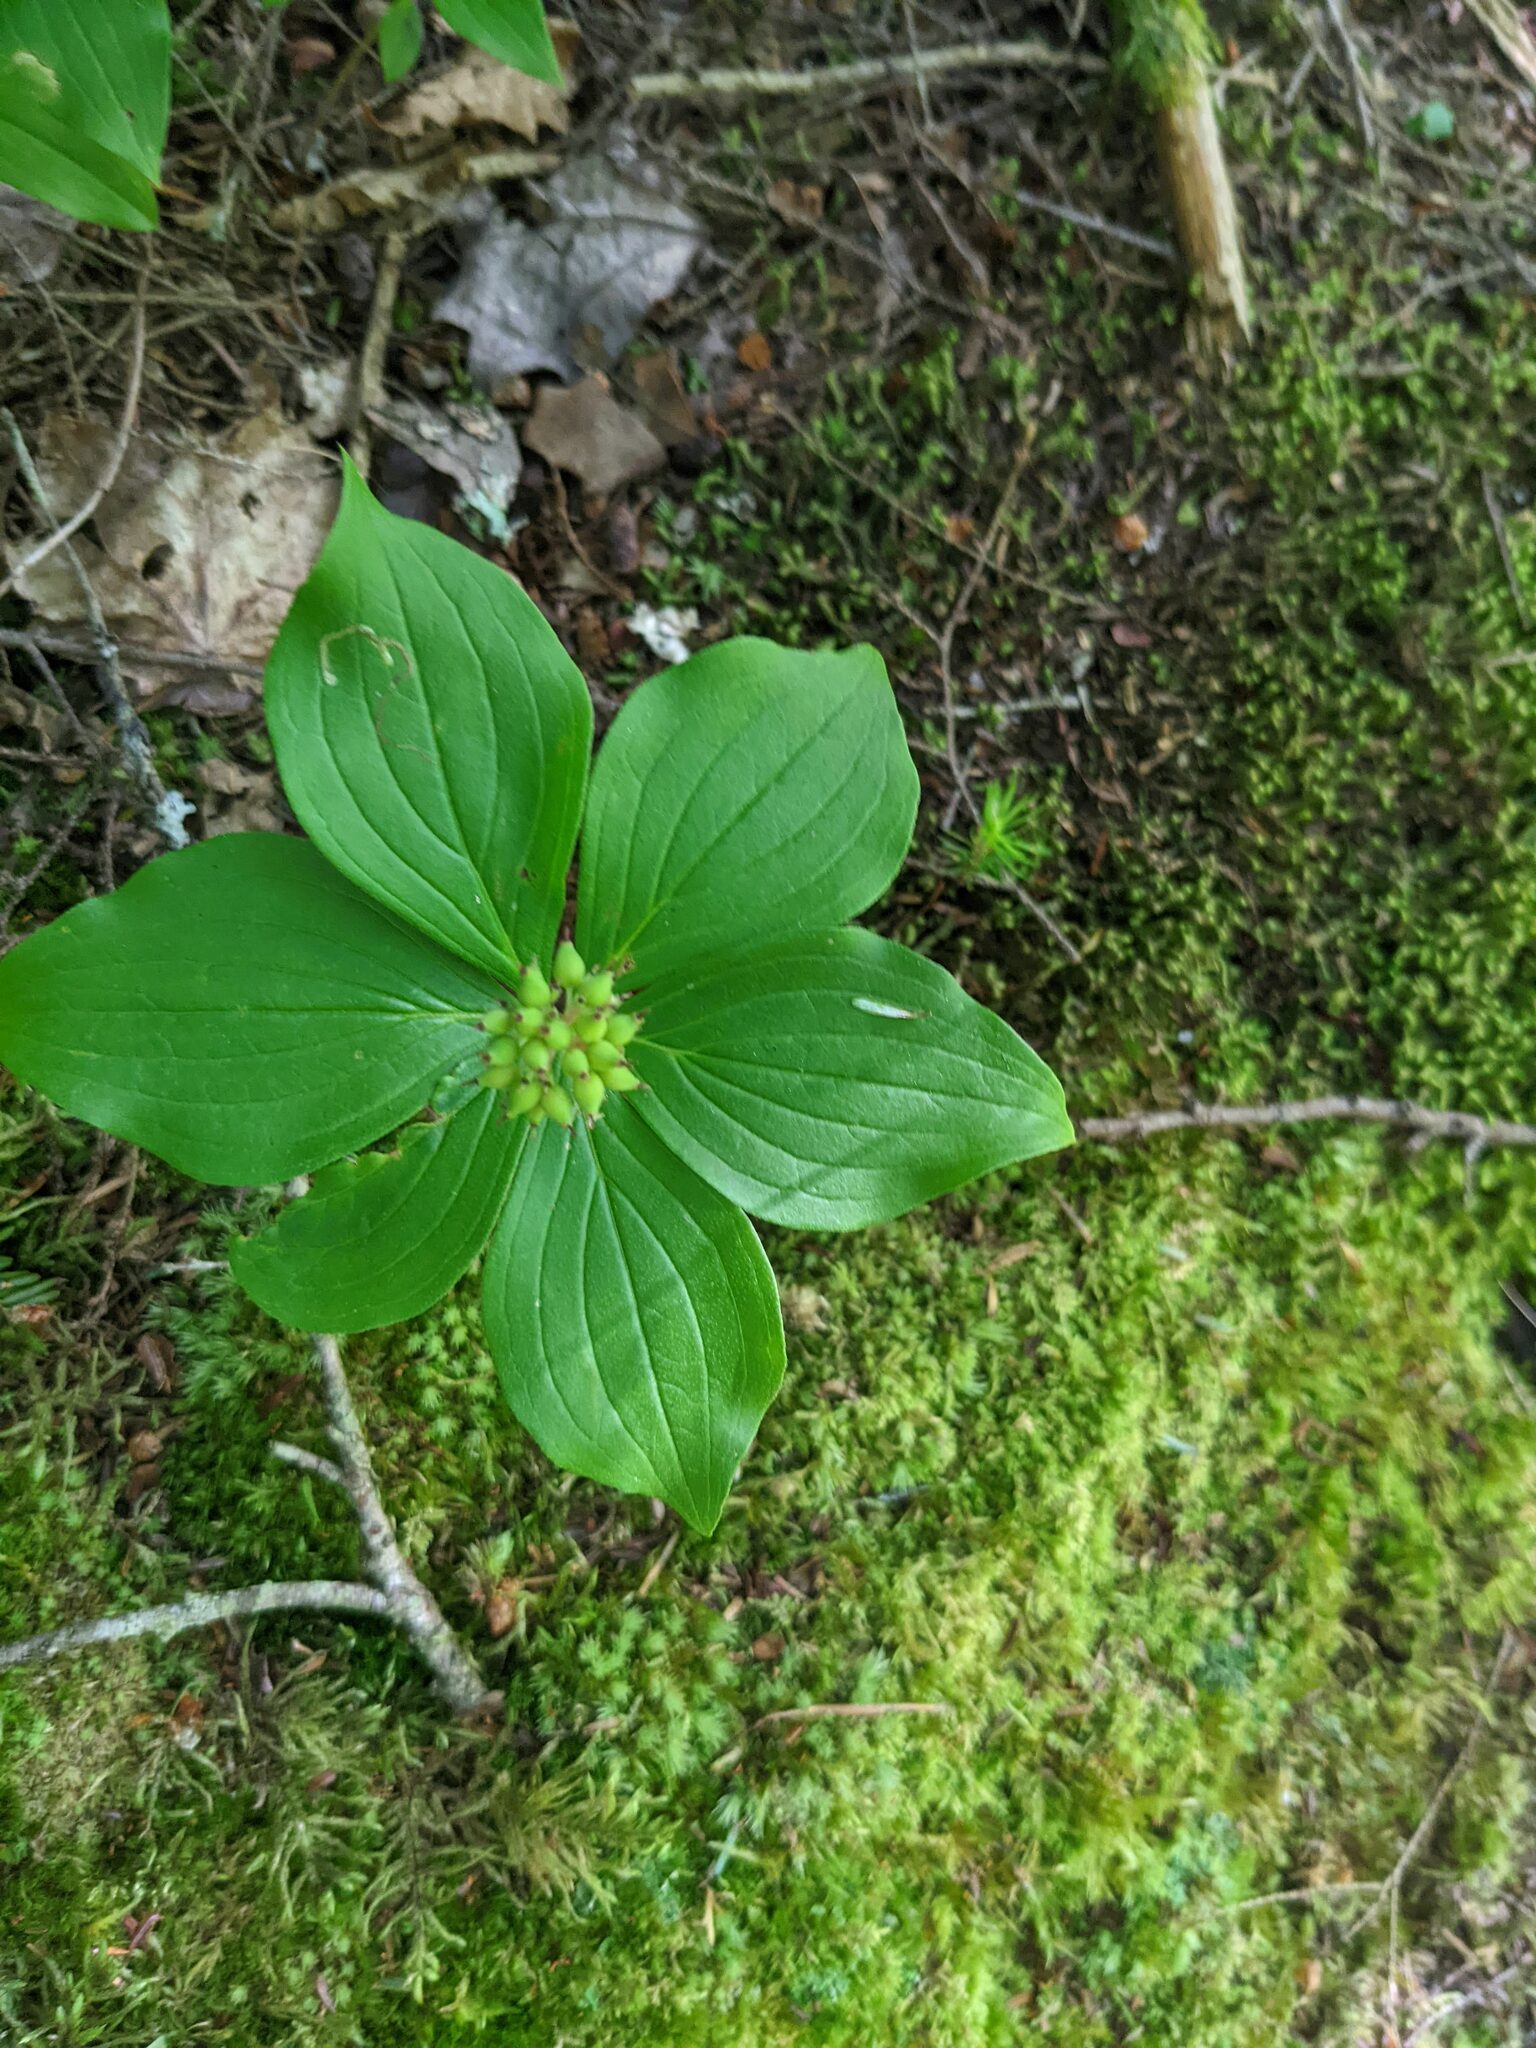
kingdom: Plantae
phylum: Tracheophyta
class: Magnoliopsida
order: Cornales
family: Cornaceae
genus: Cornus
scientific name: Cornus canadensis
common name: Creeping dogwood
